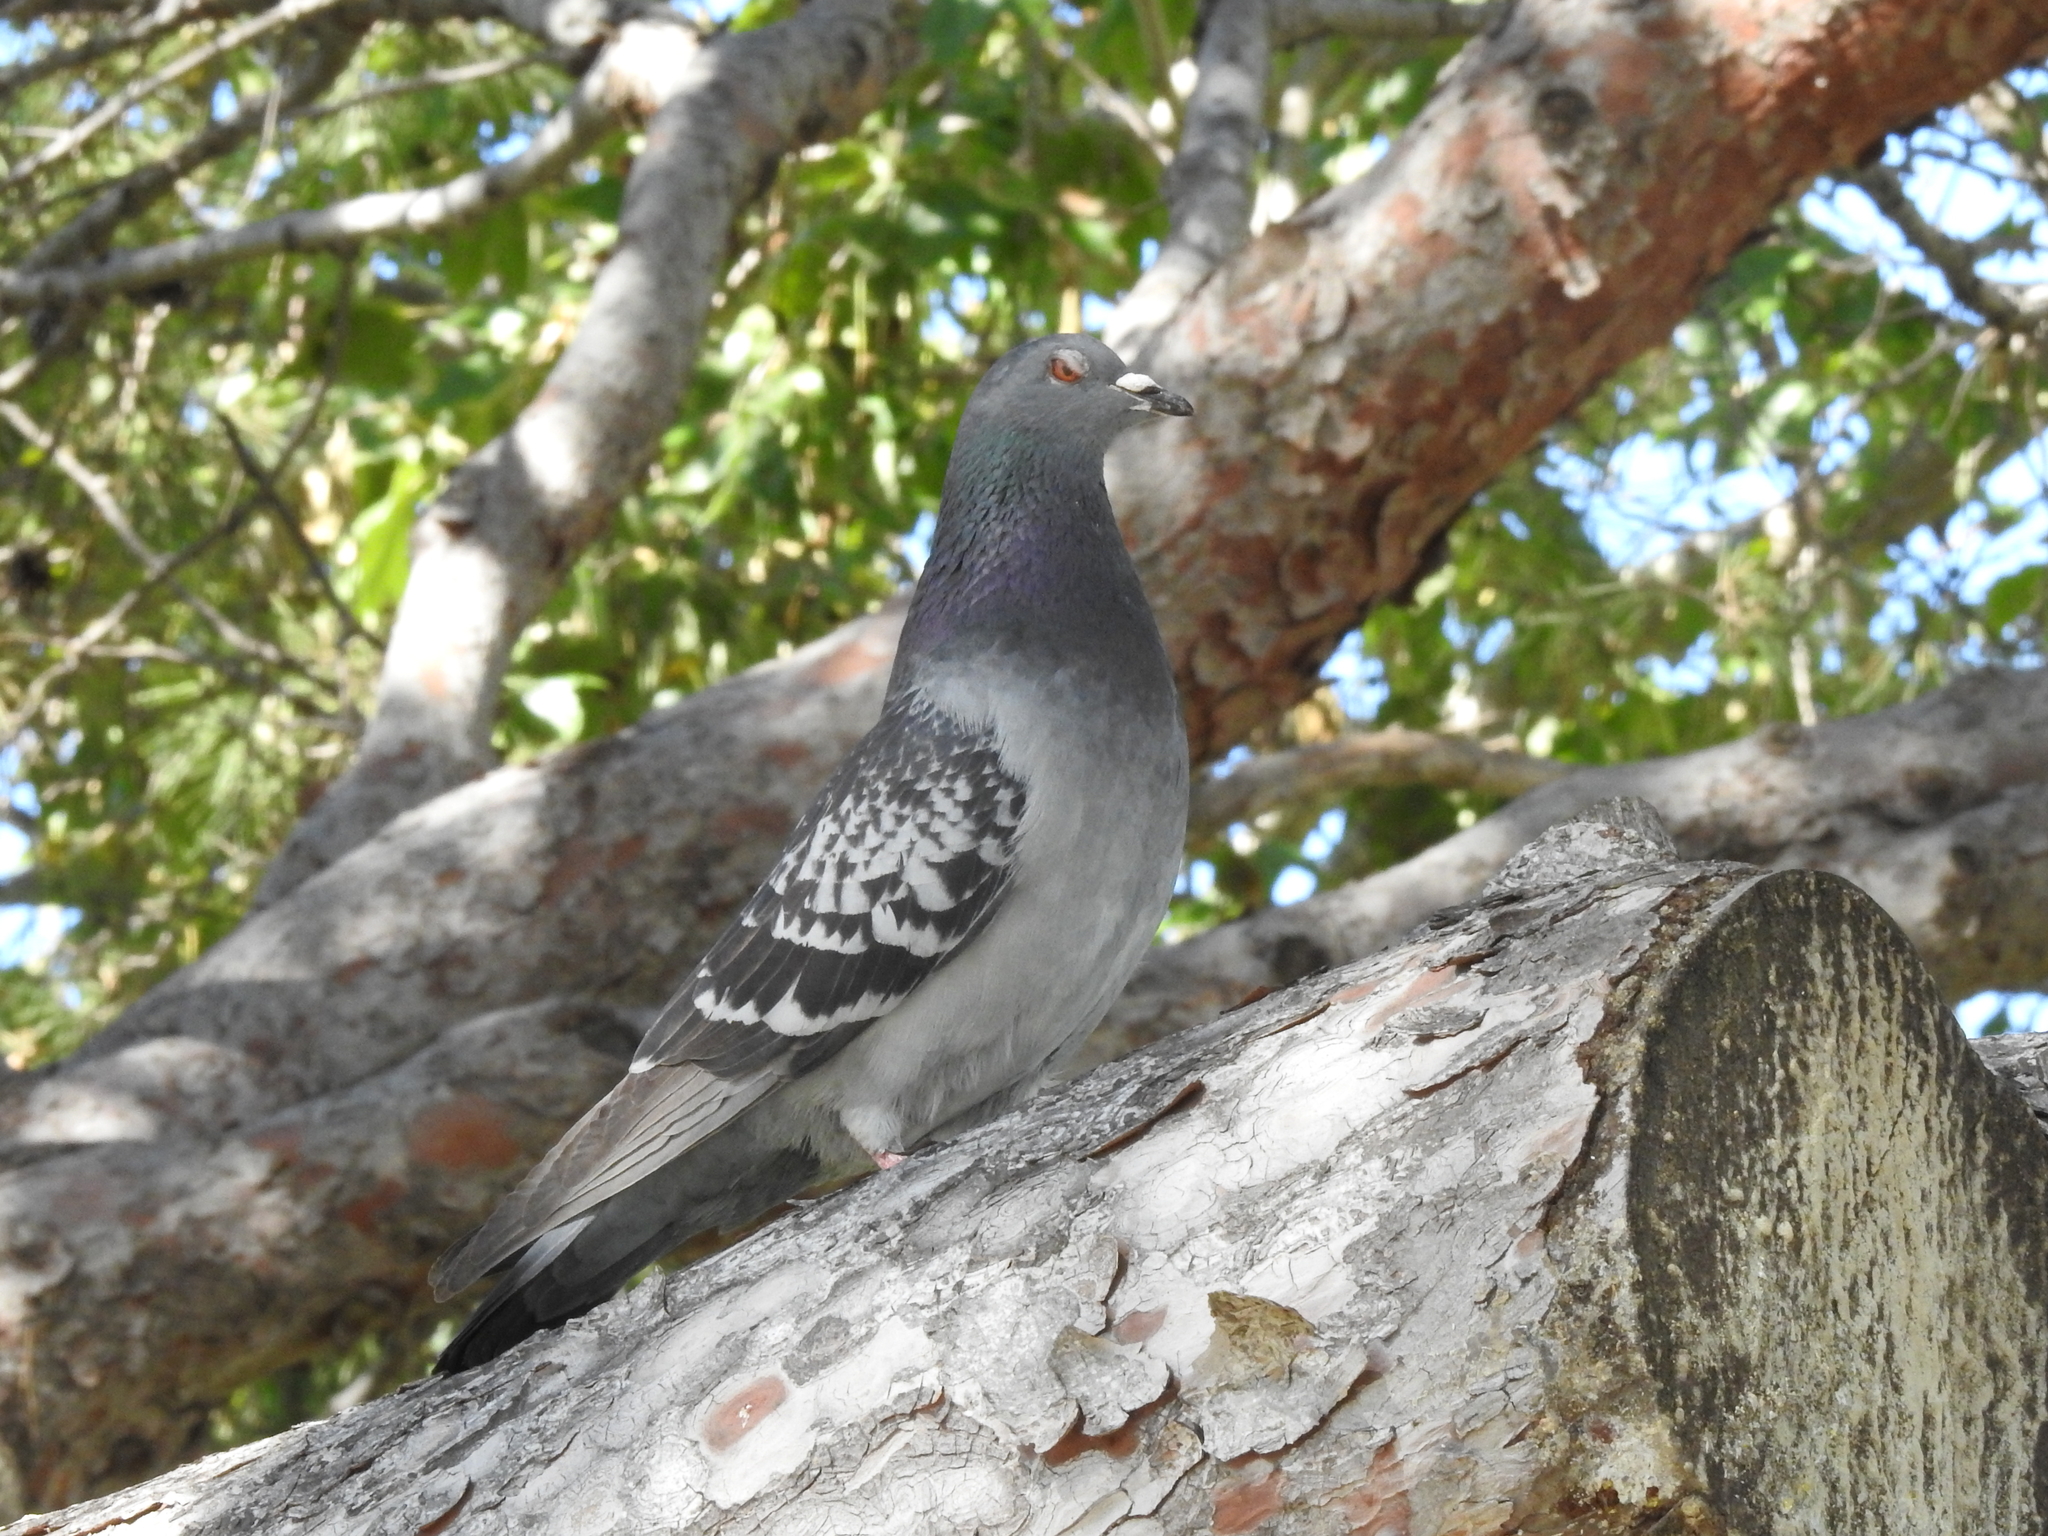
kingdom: Animalia
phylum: Chordata
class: Aves
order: Columbiformes
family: Columbidae
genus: Columba
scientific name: Columba livia
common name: Rock pigeon
